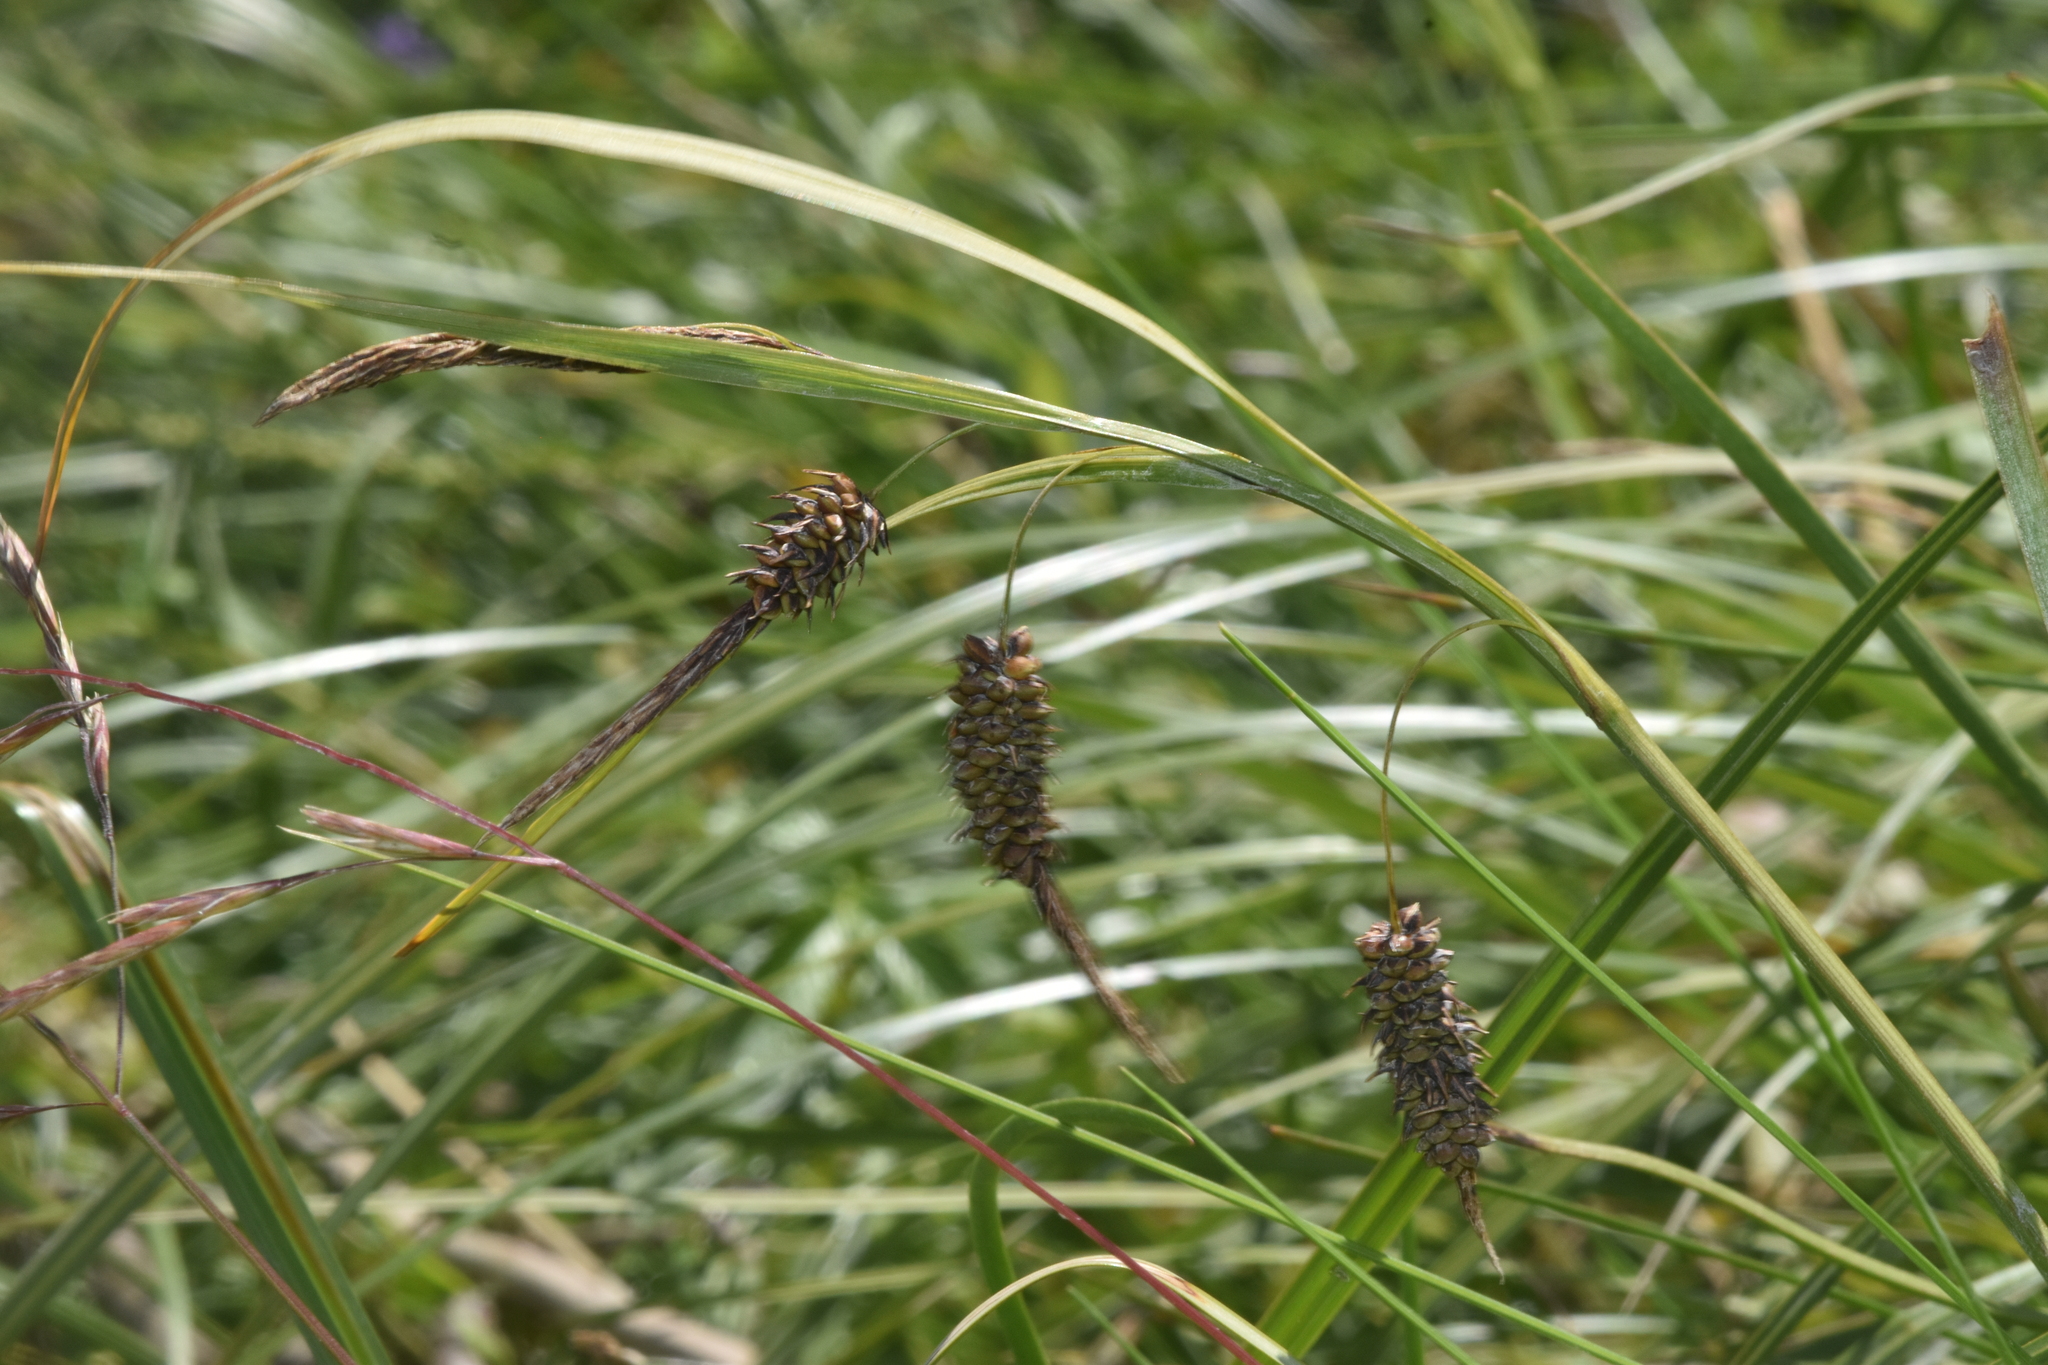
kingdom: Plantae
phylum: Tracheophyta
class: Liliopsida
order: Poales
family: Cyperaceae
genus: Carex
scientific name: Carex lyngbyei
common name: Lyngbye's sedge
